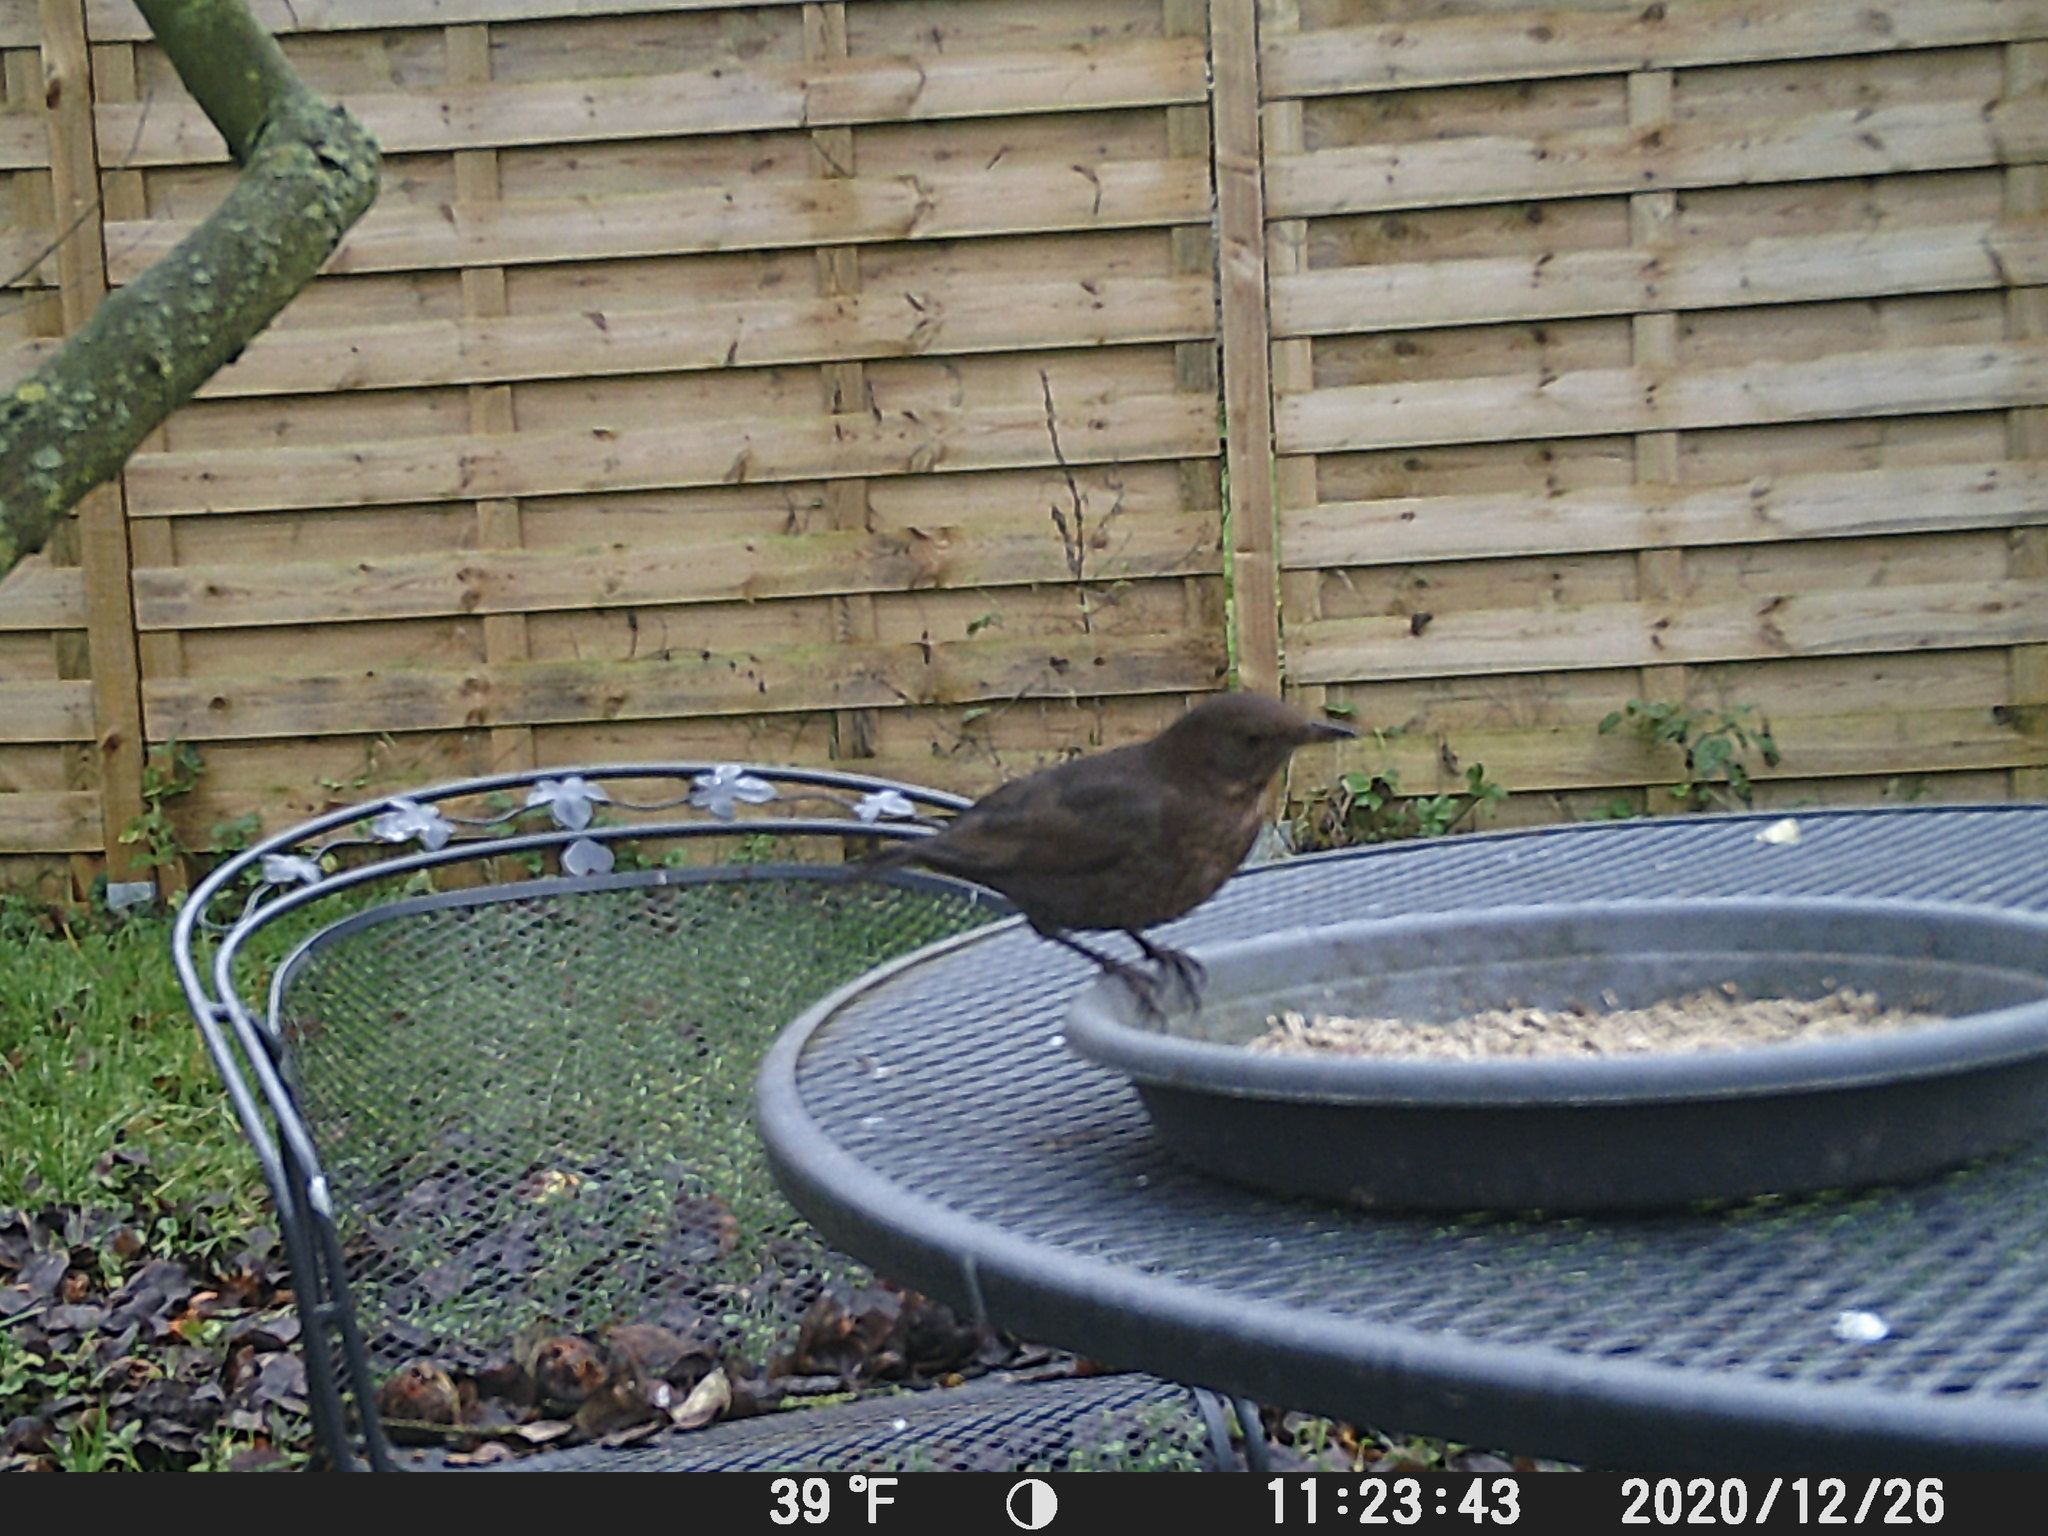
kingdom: Animalia
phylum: Chordata
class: Aves
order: Passeriformes
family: Turdidae
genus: Turdus
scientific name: Turdus merula
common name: Common blackbird
